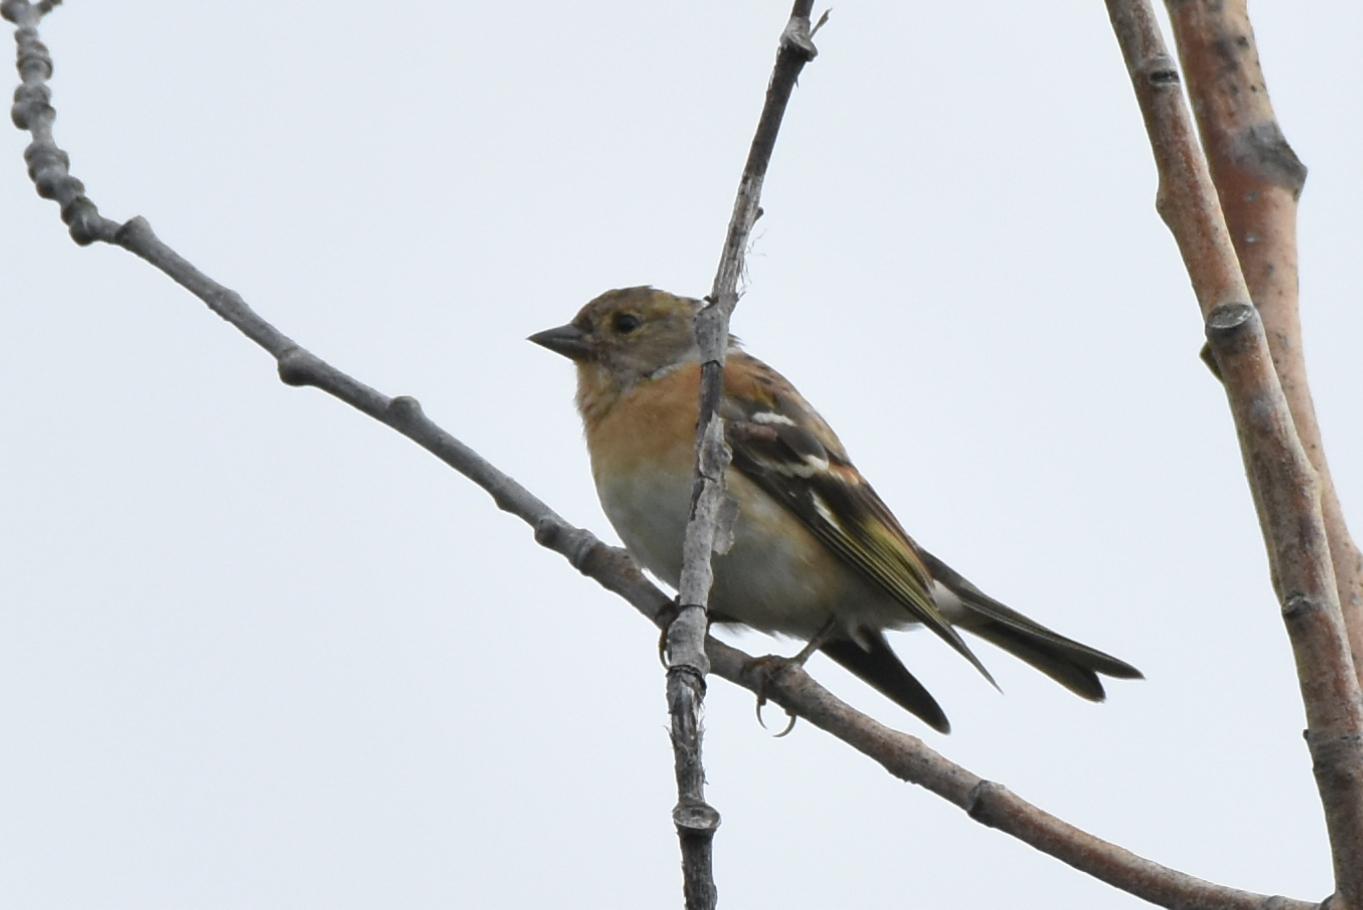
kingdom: Animalia
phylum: Chordata
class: Aves
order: Passeriformes
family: Fringillidae
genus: Fringilla
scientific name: Fringilla montifringilla
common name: Brambling
